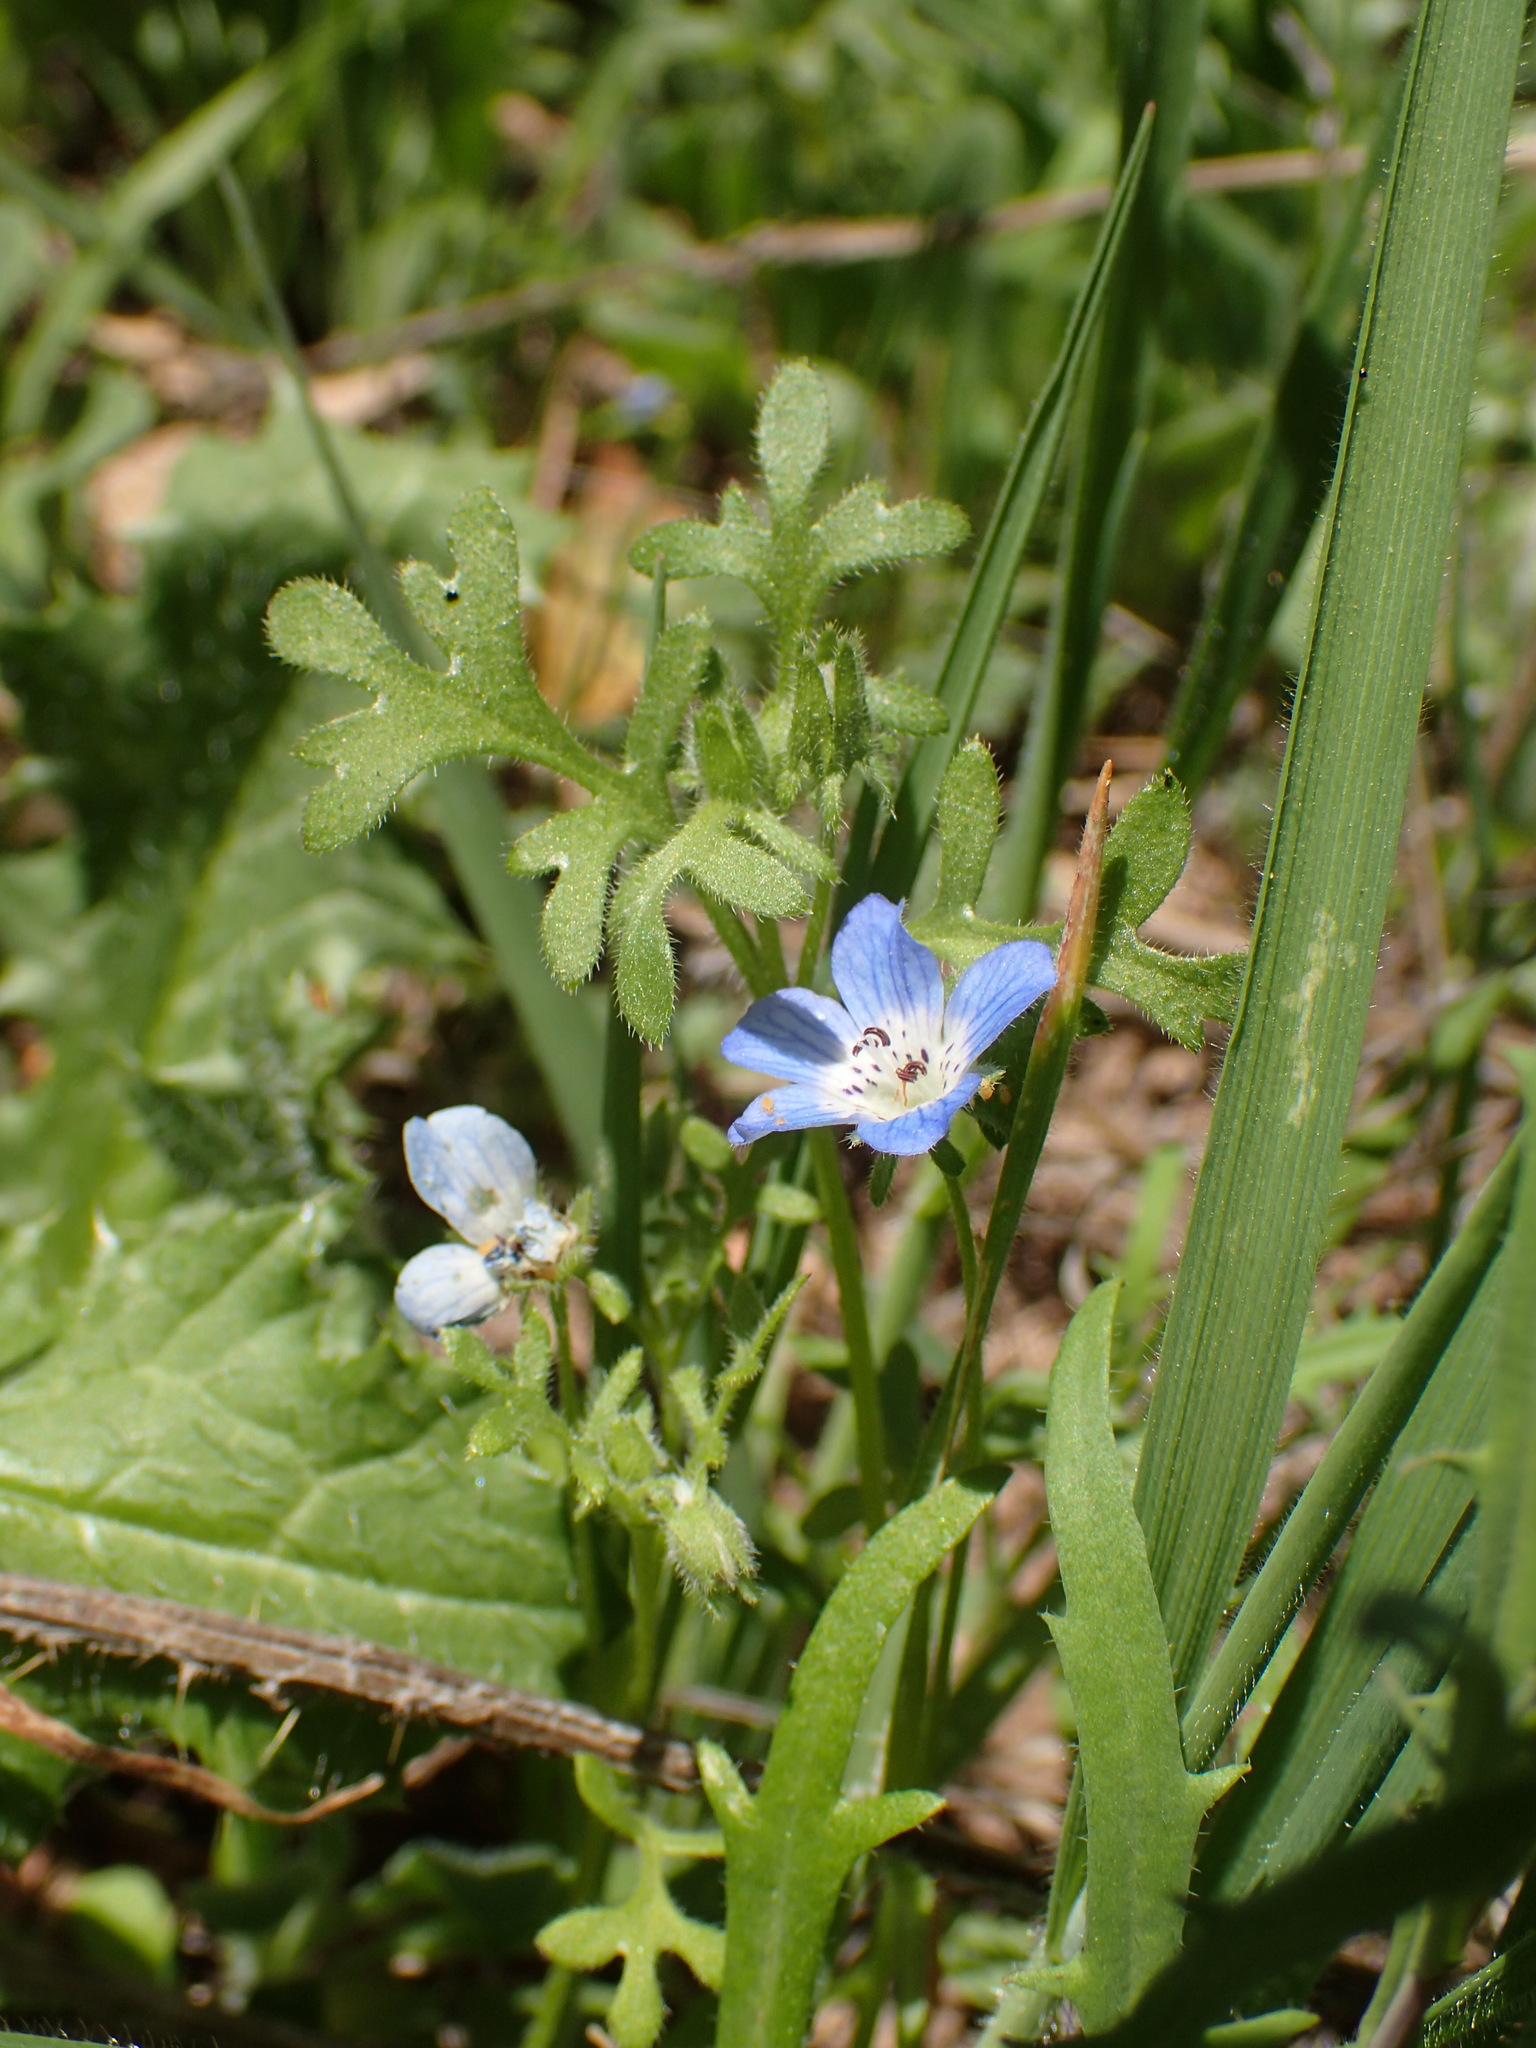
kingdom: Plantae
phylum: Tracheophyta
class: Magnoliopsida
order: Boraginales
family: Hydrophyllaceae
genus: Nemophila
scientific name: Nemophila menziesii
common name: Baby's-blue-eyes
